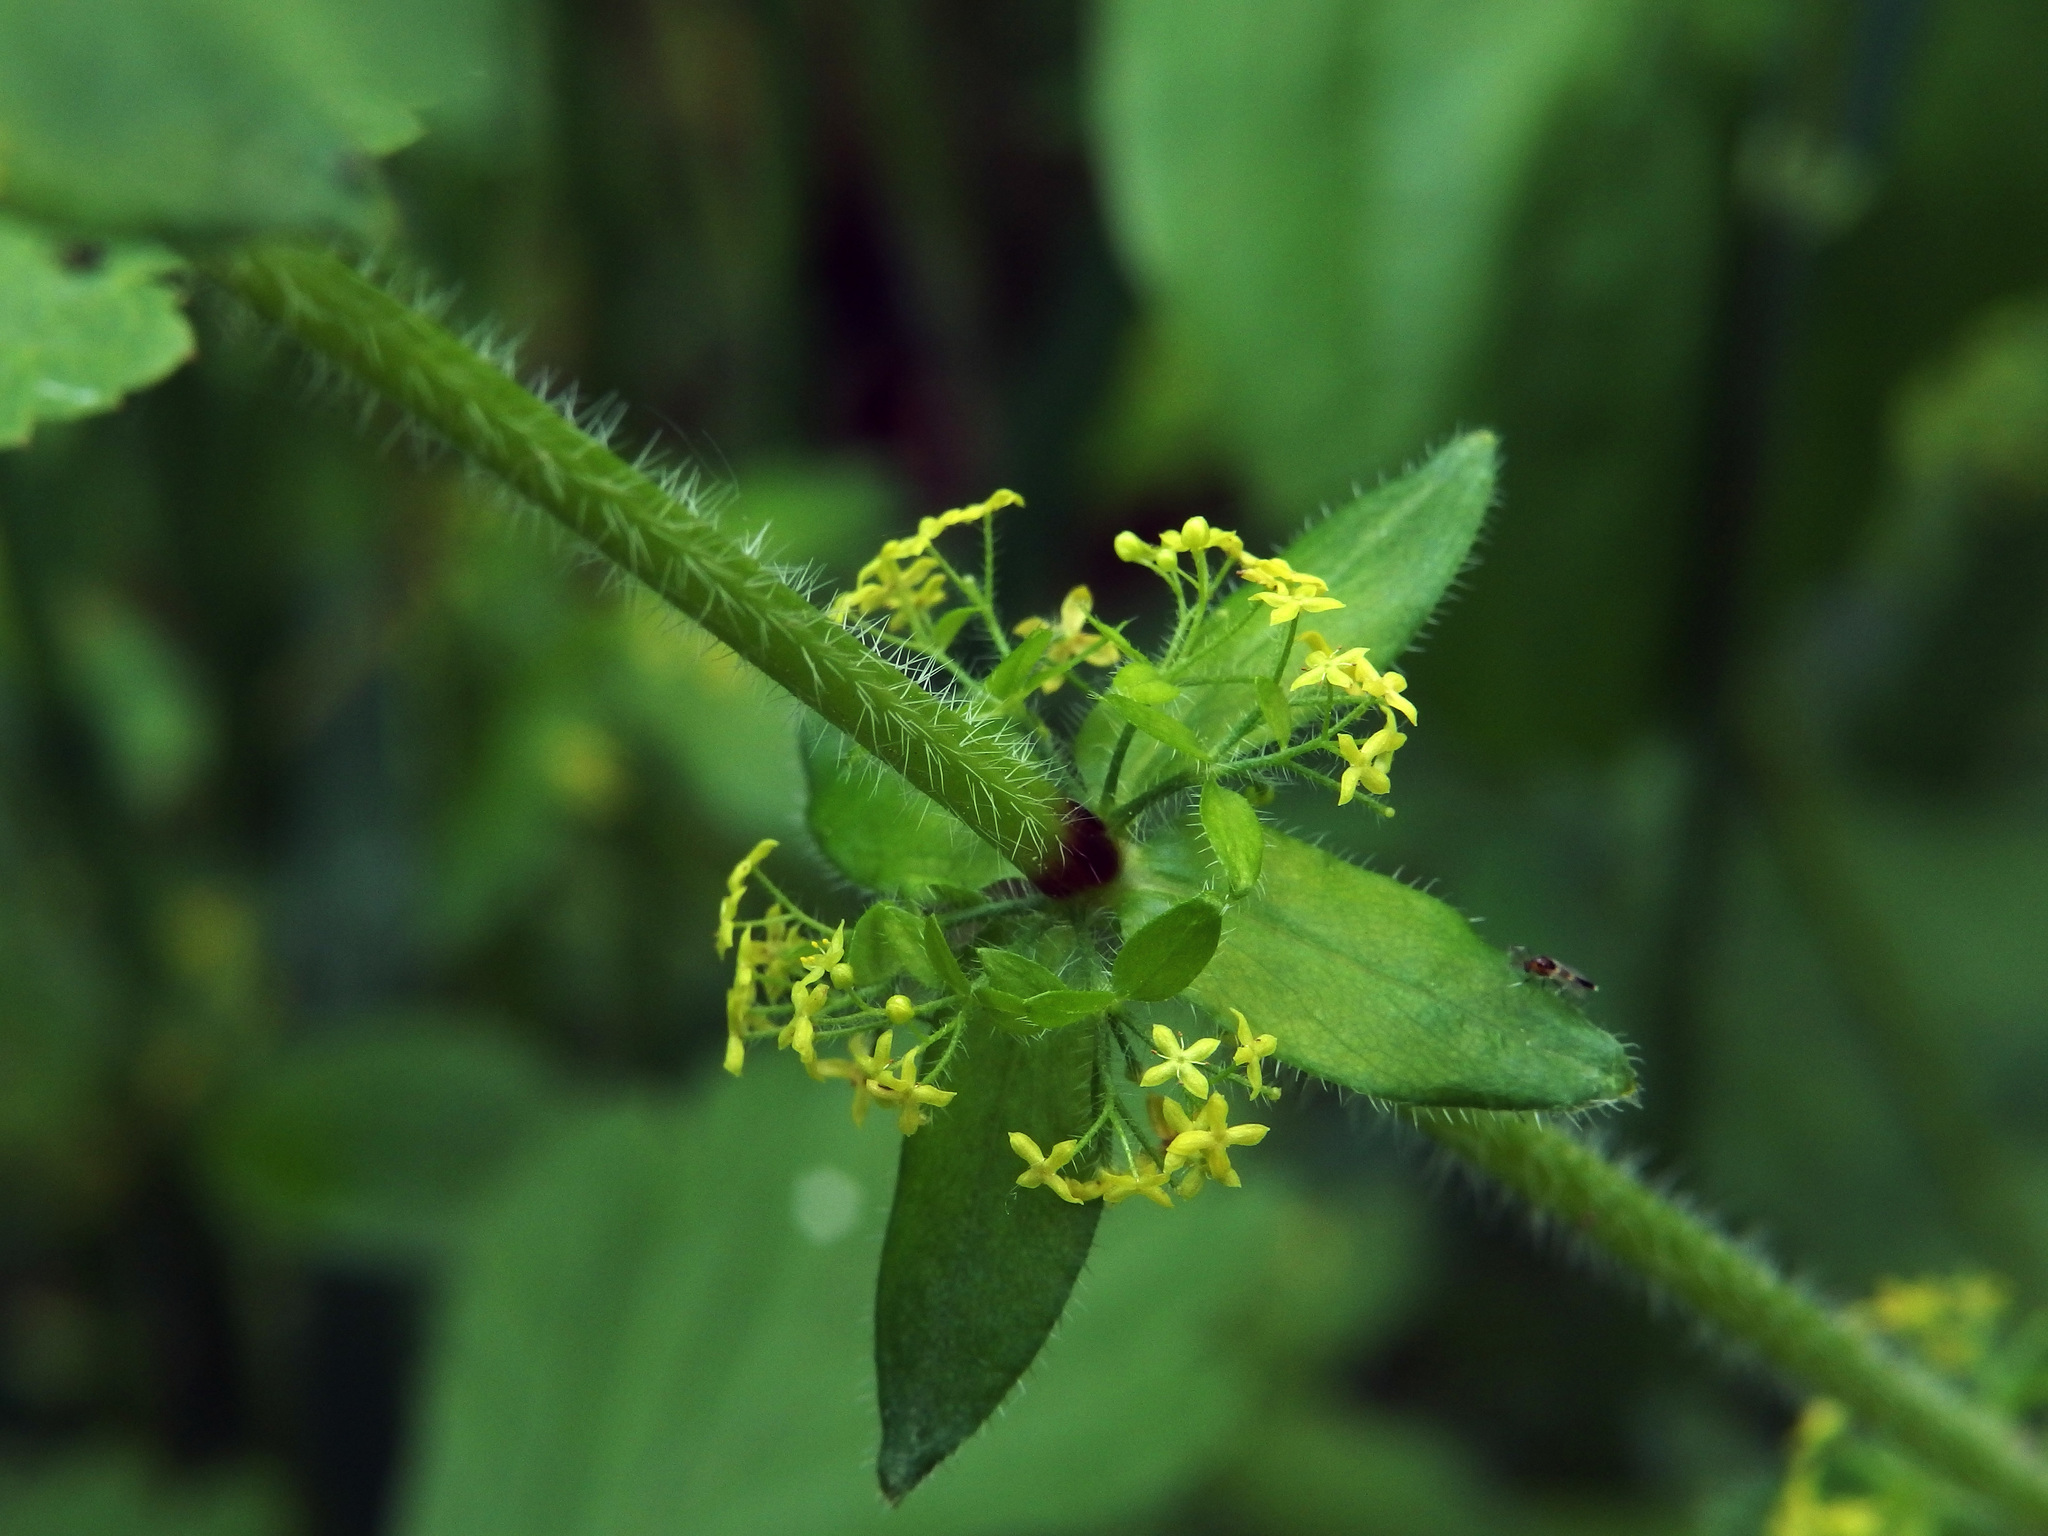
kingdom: Plantae
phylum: Tracheophyta
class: Magnoliopsida
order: Gentianales
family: Rubiaceae
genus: Cruciata
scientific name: Cruciata laevipes
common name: Crosswort
